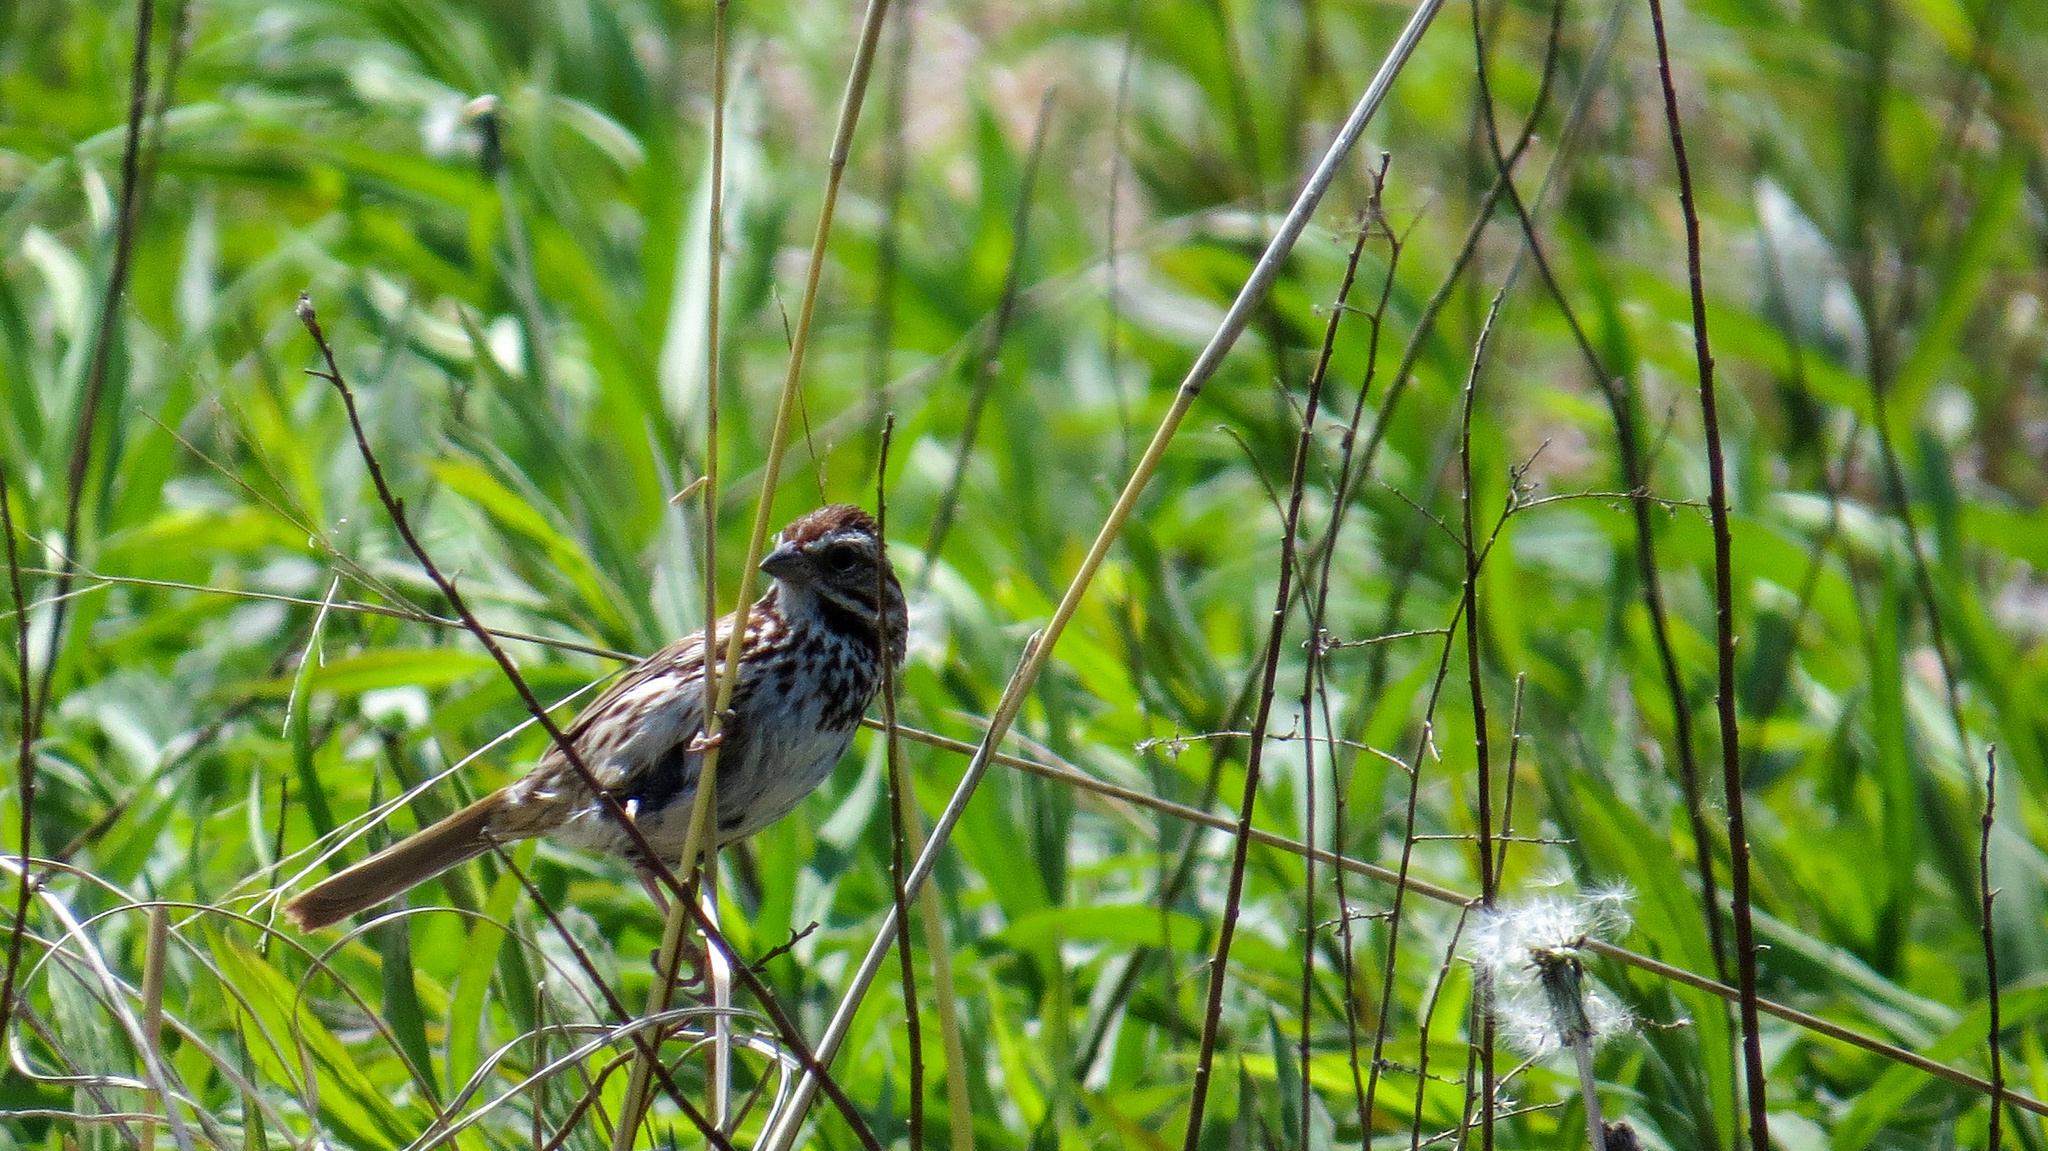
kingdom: Animalia
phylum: Chordata
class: Aves
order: Passeriformes
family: Passerellidae
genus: Melospiza
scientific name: Melospiza melodia
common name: Song sparrow
